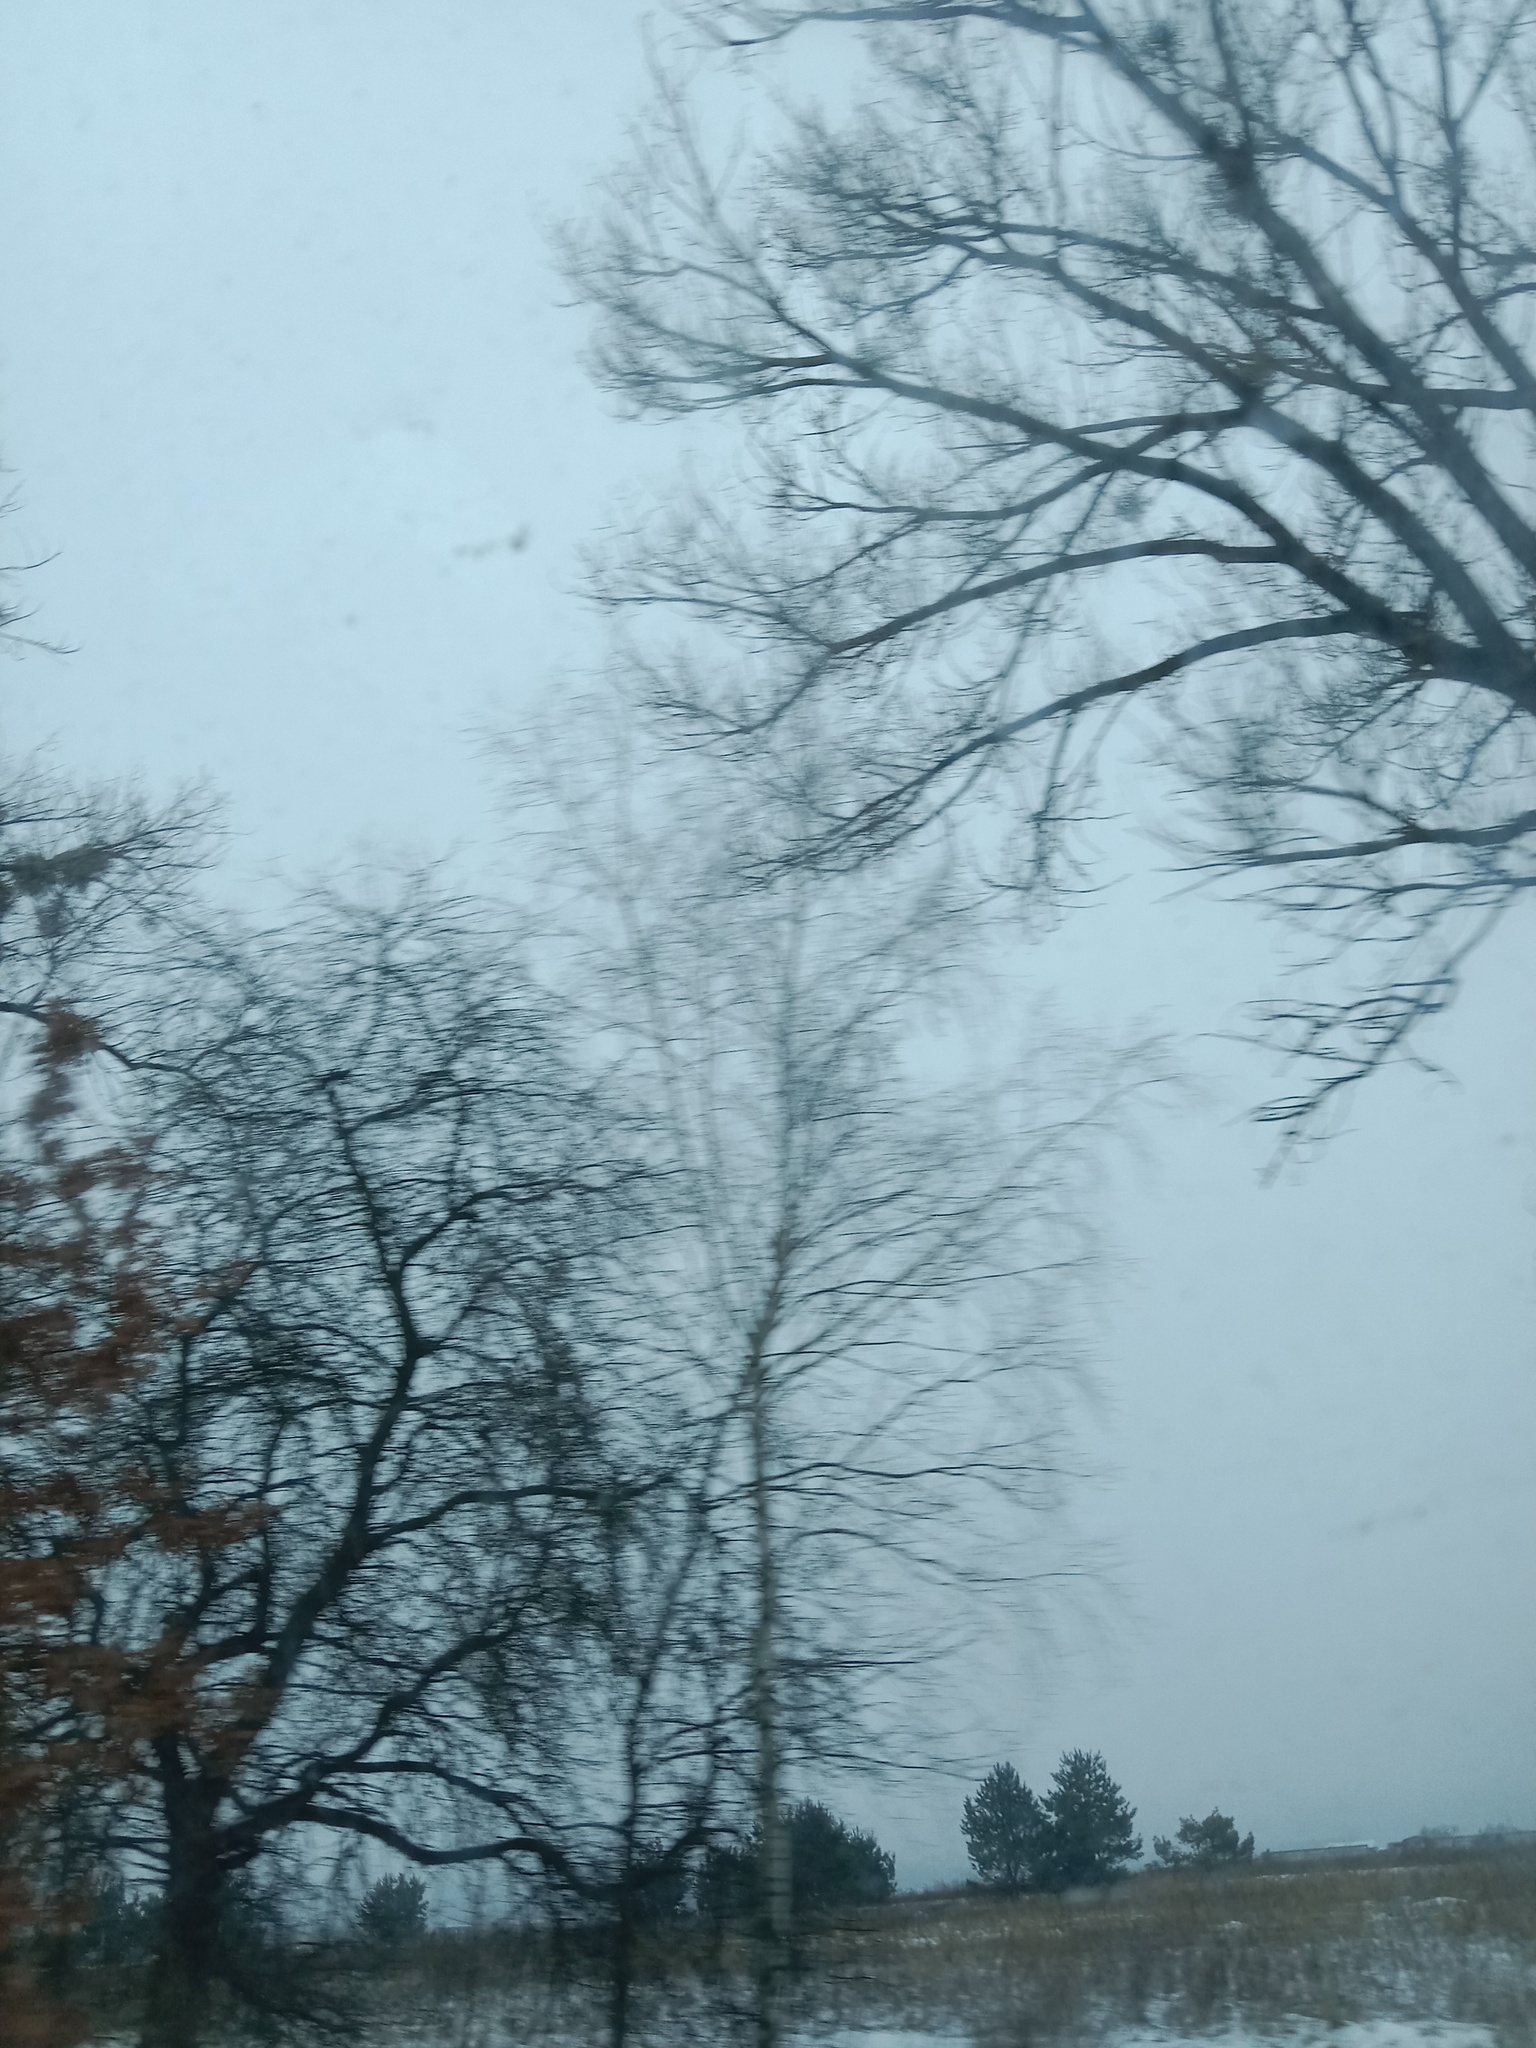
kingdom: Plantae
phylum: Tracheophyta
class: Magnoliopsida
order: Santalales
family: Viscaceae
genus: Viscum
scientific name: Viscum album
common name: Mistletoe
